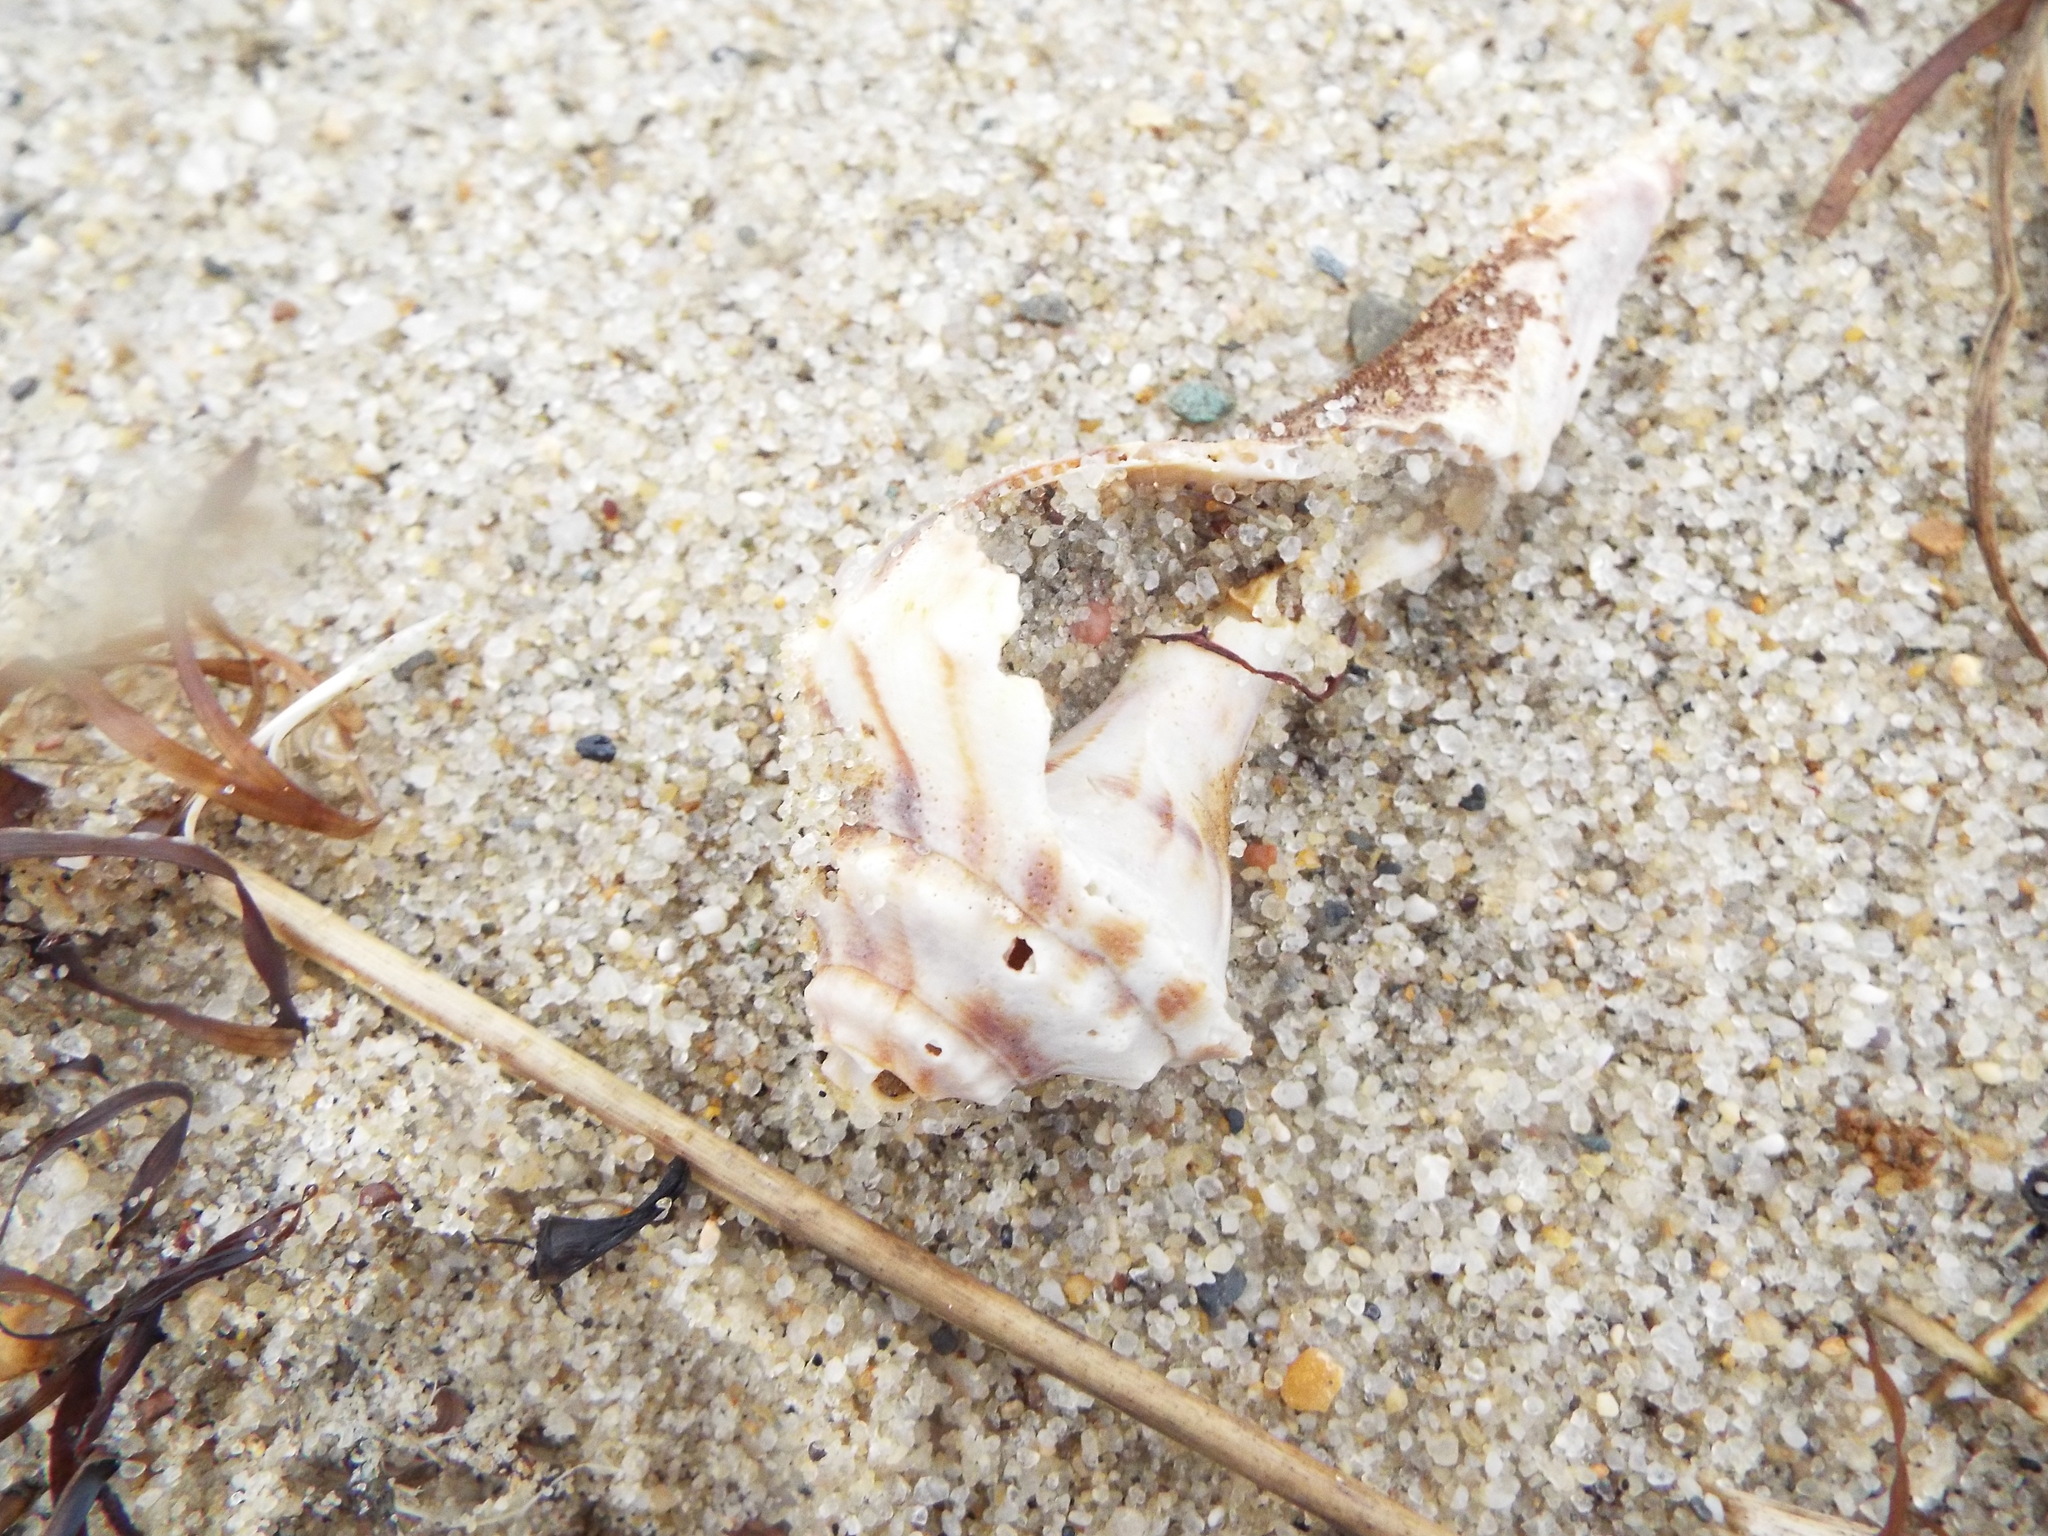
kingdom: Animalia
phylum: Mollusca
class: Gastropoda
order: Neogastropoda
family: Busyconidae
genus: Busycon
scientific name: Busycon carica
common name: Knobbed whelk
